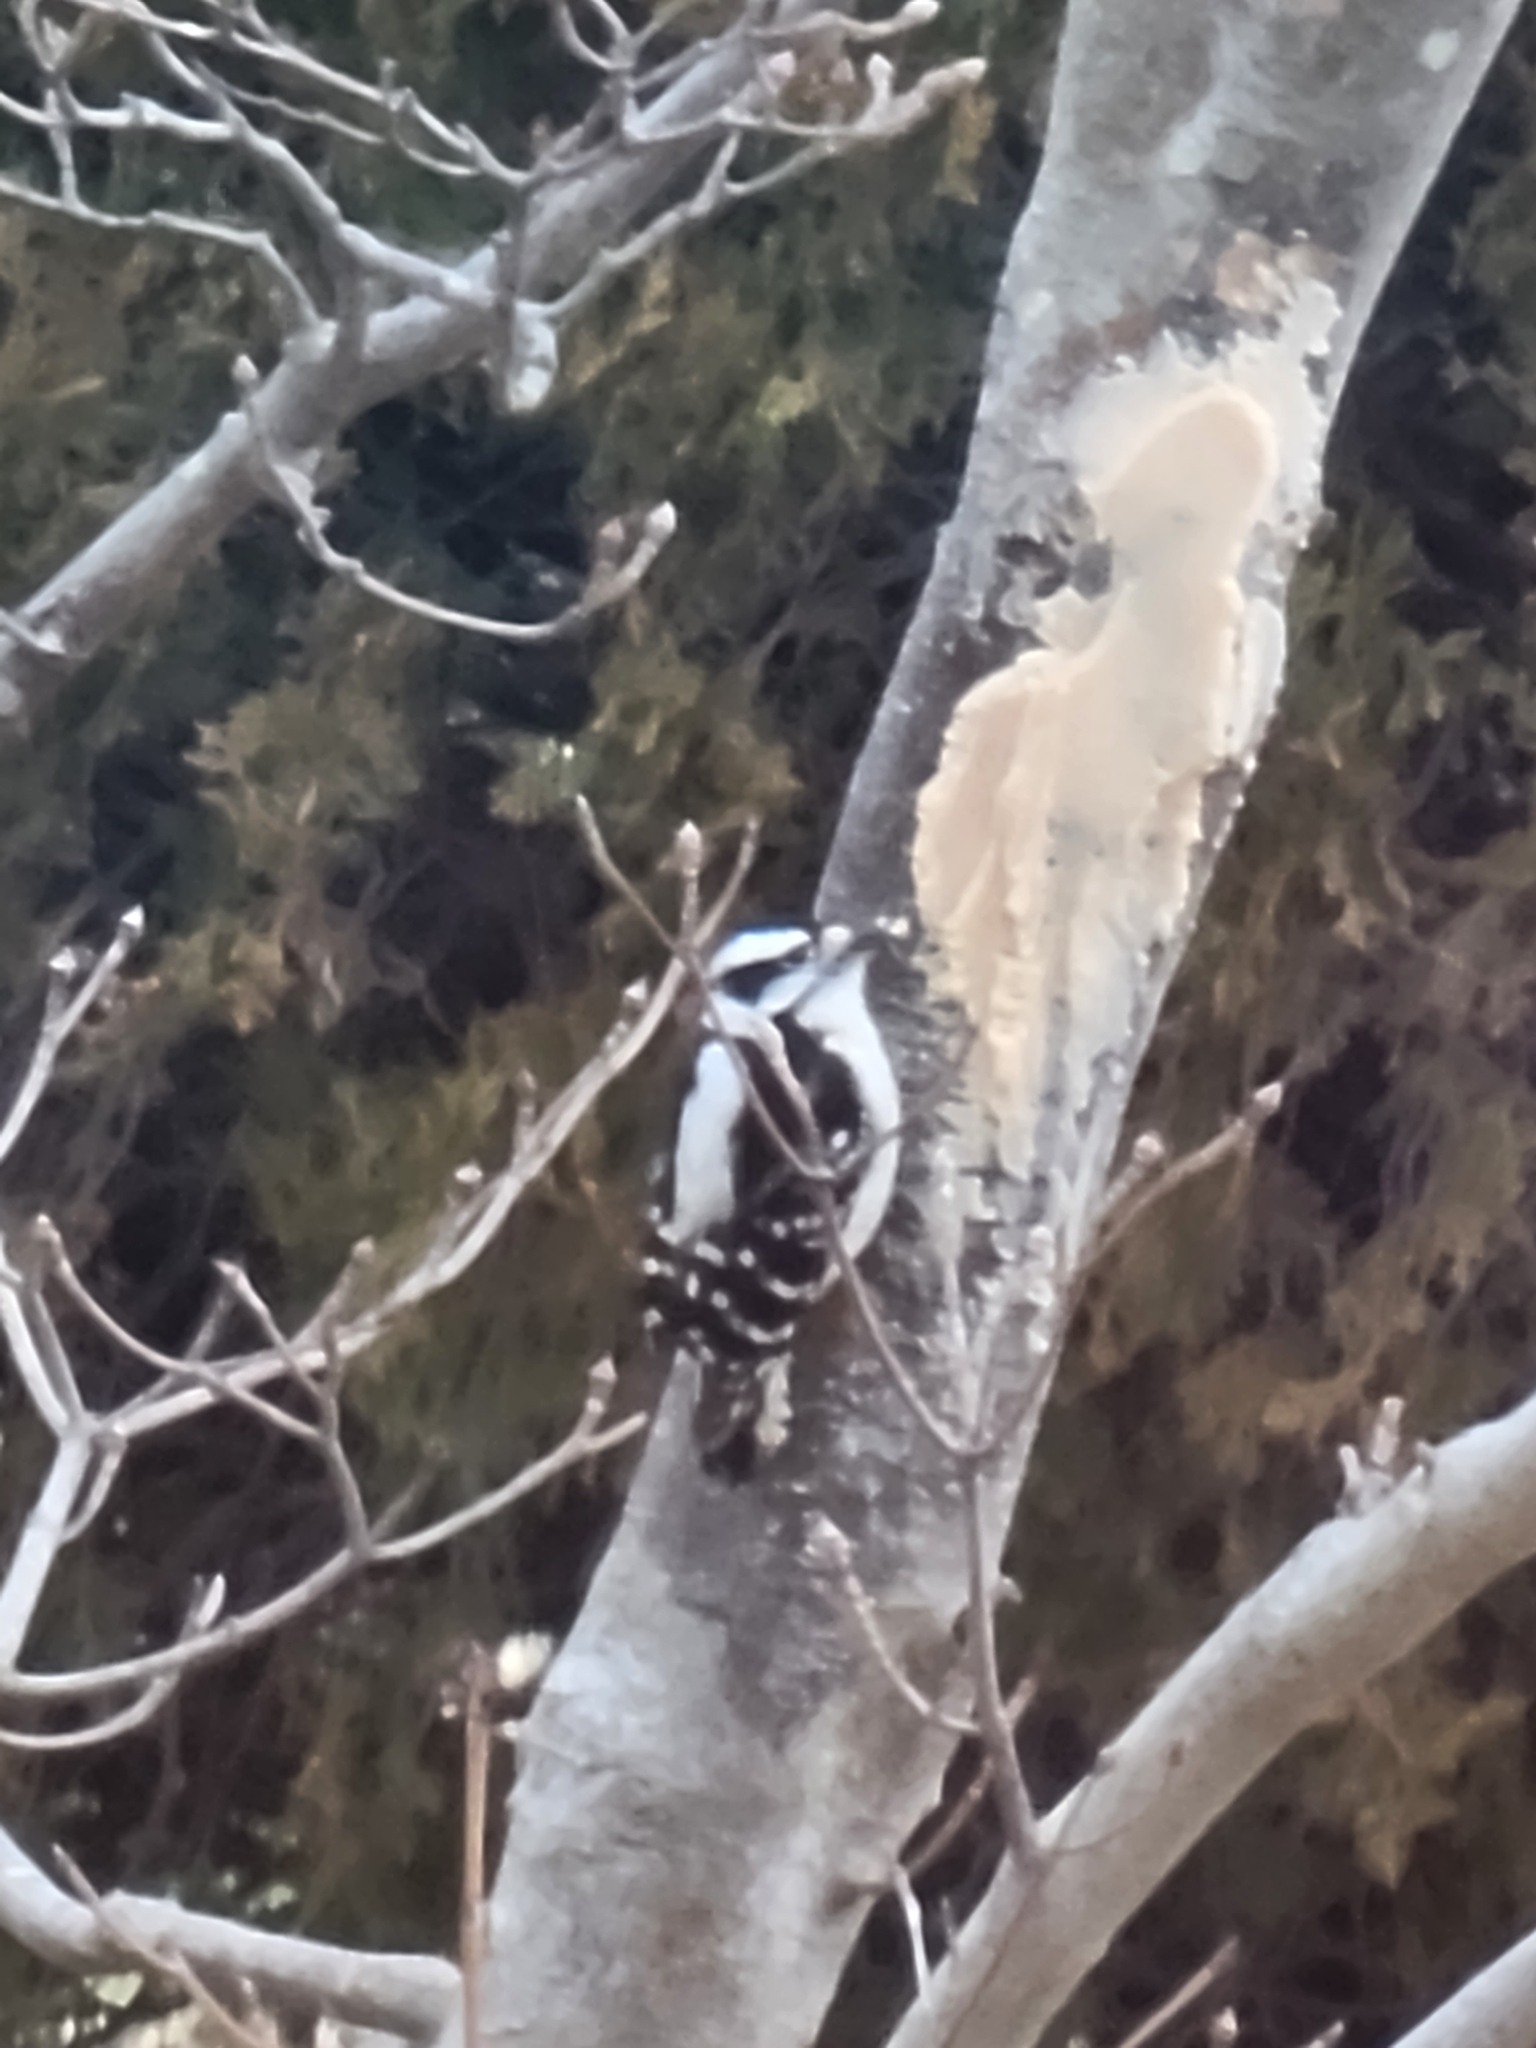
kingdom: Animalia
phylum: Chordata
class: Aves
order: Piciformes
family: Picidae
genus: Dryobates
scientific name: Dryobates pubescens
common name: Downy woodpecker
